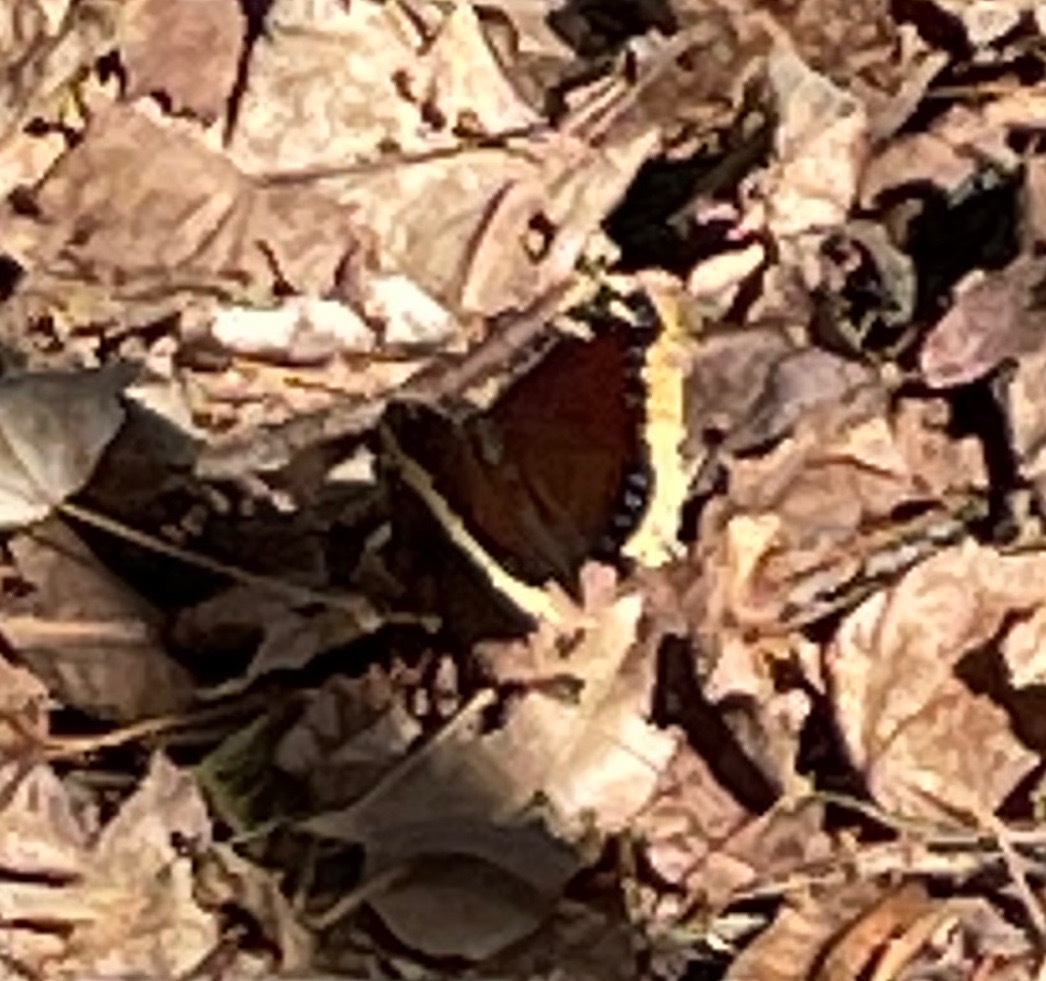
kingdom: Animalia
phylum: Arthropoda
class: Insecta
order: Lepidoptera
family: Nymphalidae
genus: Nymphalis
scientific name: Nymphalis antiopa
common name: Camberwell beauty
